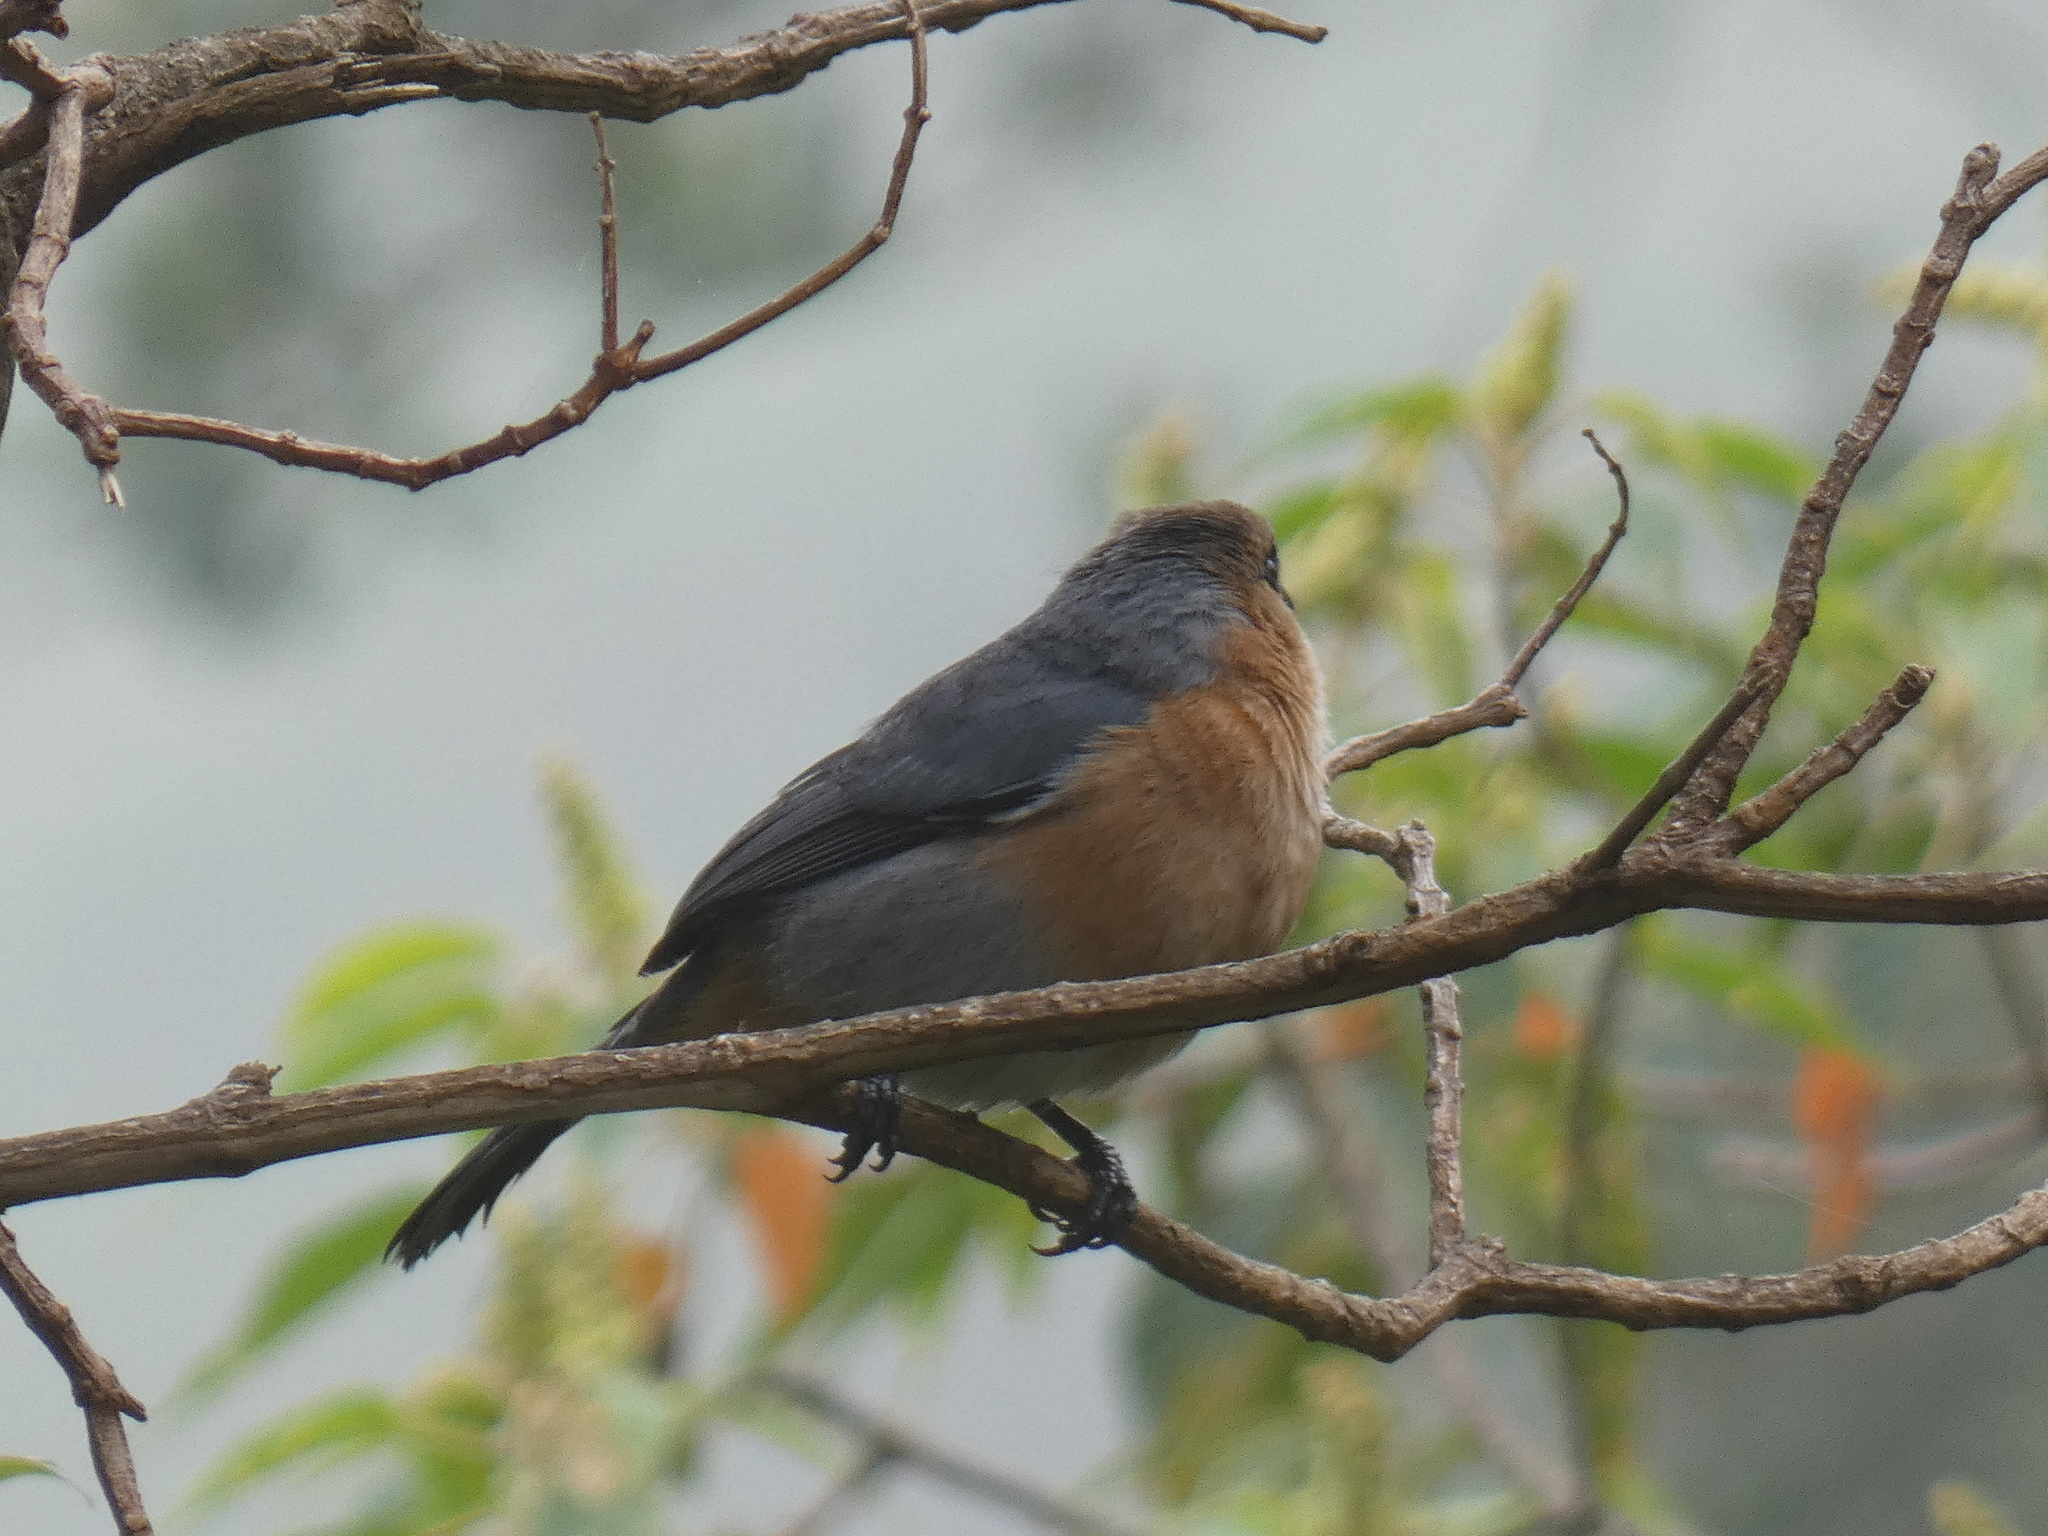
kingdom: Animalia
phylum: Chordata
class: Aves
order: Passeriformes
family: Thraupidae
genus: Schistochlamys
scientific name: Schistochlamys ruficapillus
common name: Cinnamon tanager
